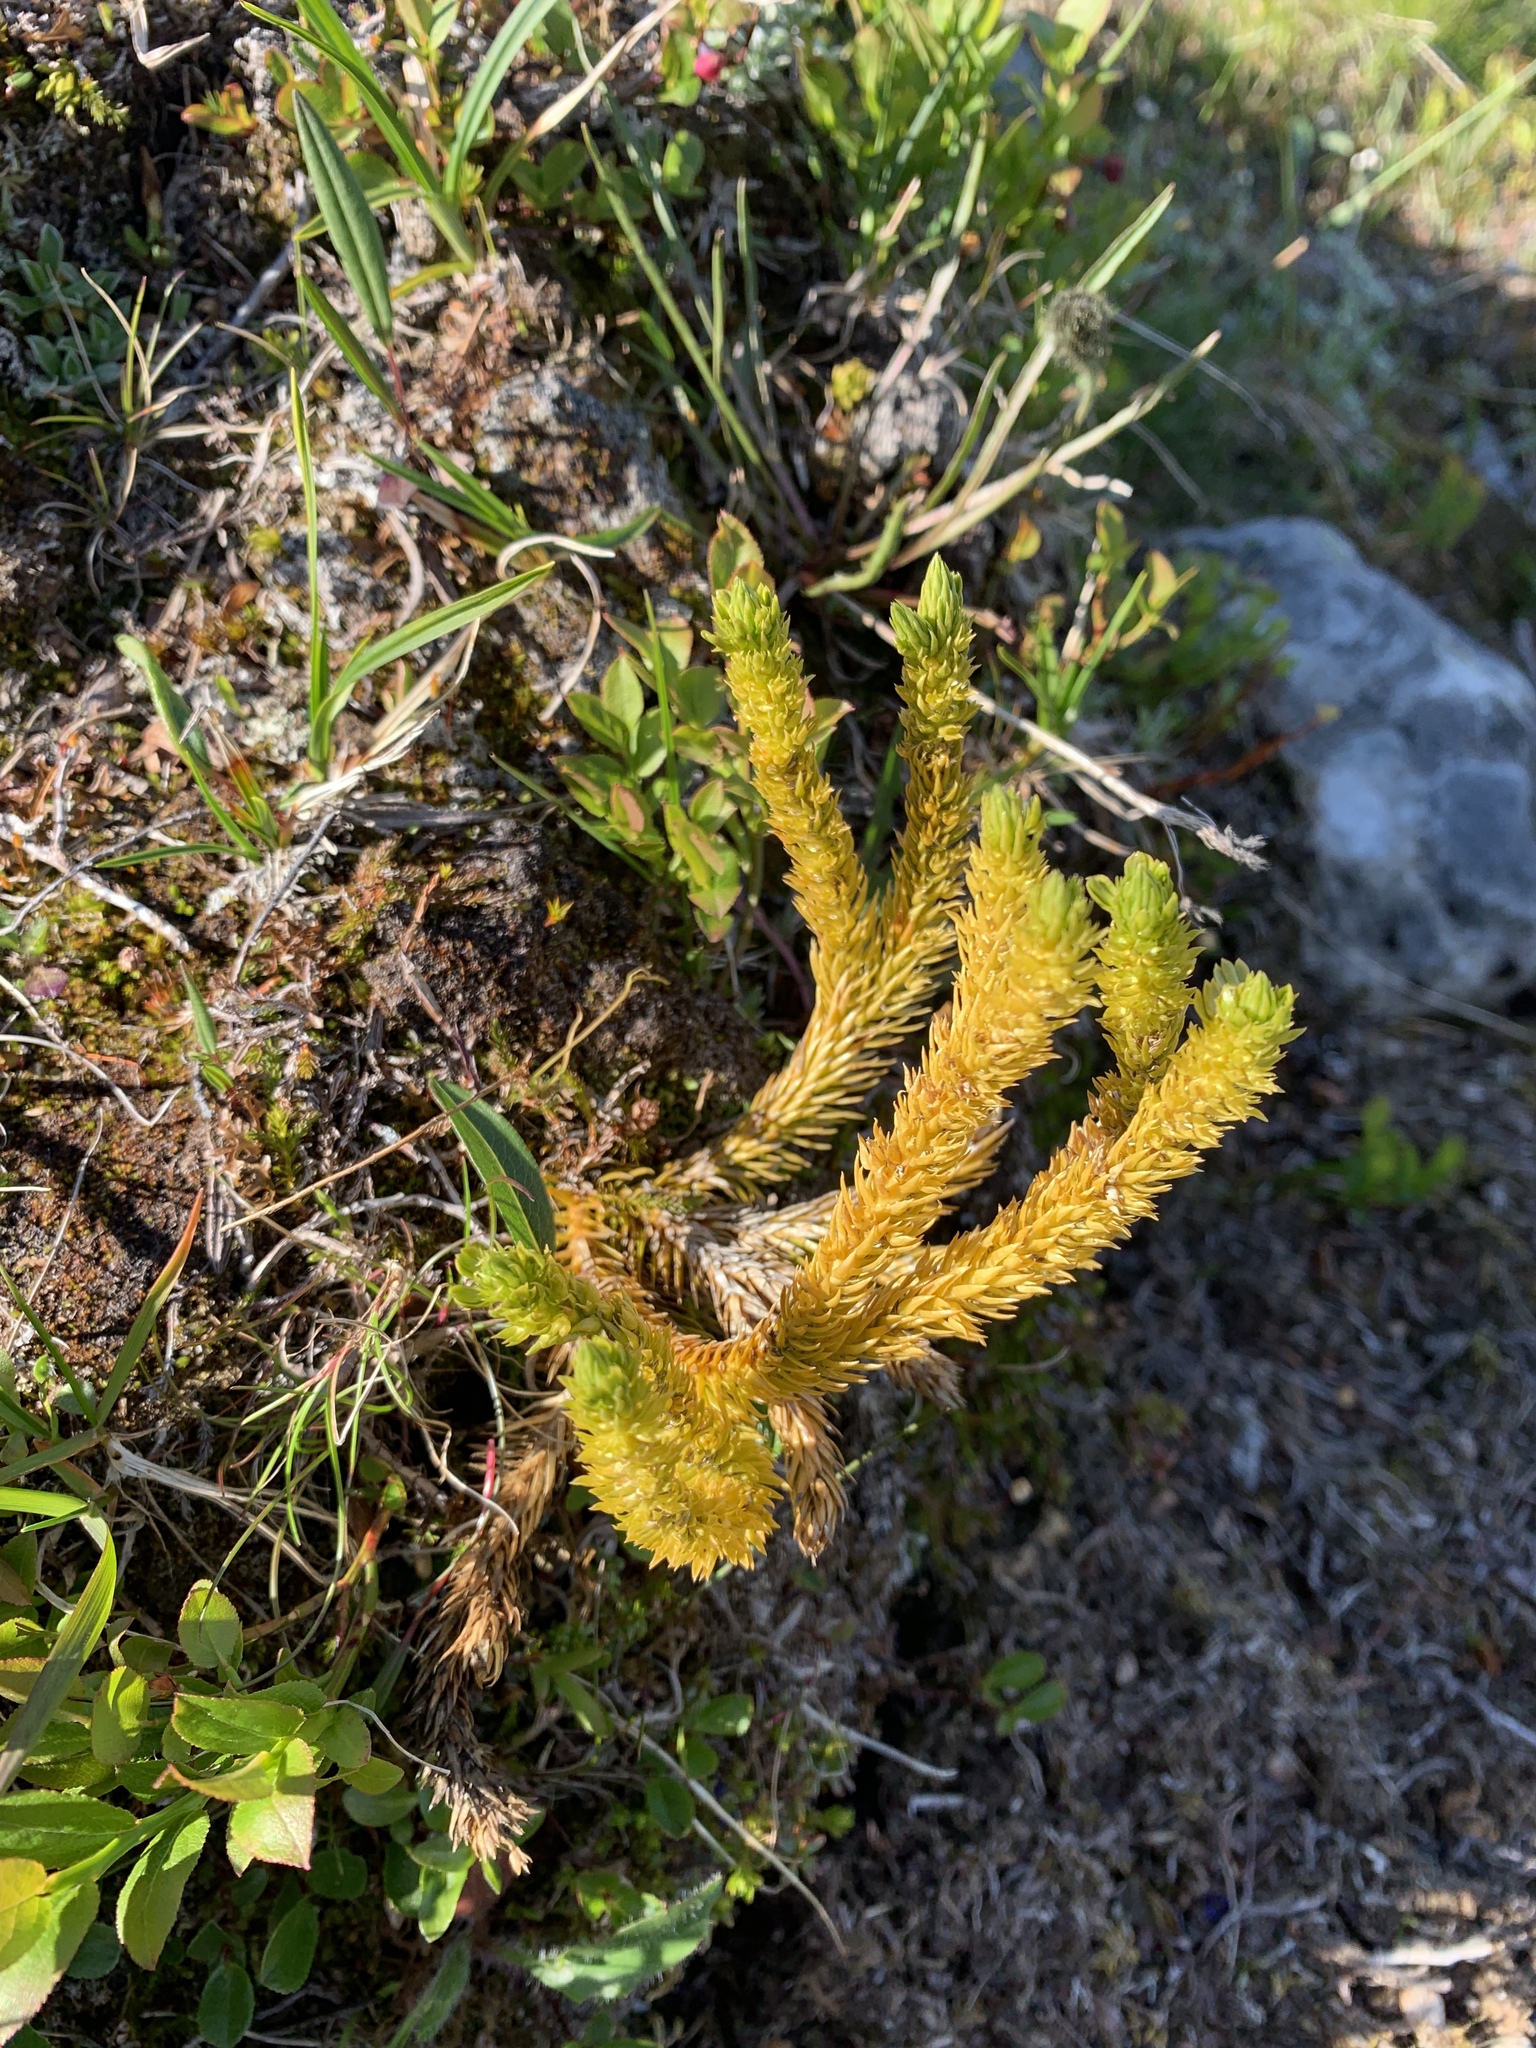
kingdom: Plantae
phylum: Tracheophyta
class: Lycopodiopsida
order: Lycopodiales
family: Lycopodiaceae
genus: Huperzia
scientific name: Huperzia selago
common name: Northern firmoss
